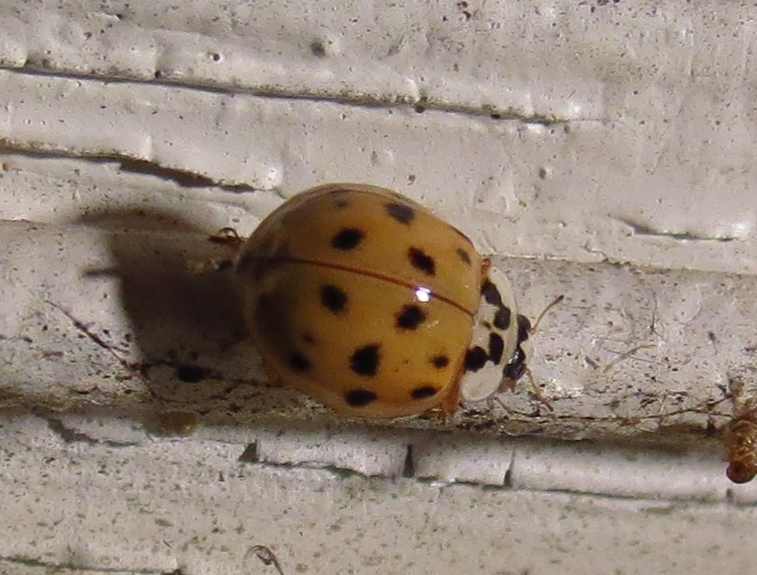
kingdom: Animalia
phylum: Arthropoda
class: Insecta
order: Coleoptera
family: Coccinellidae
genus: Harmonia
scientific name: Harmonia axyridis
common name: Harlequin ladybird
